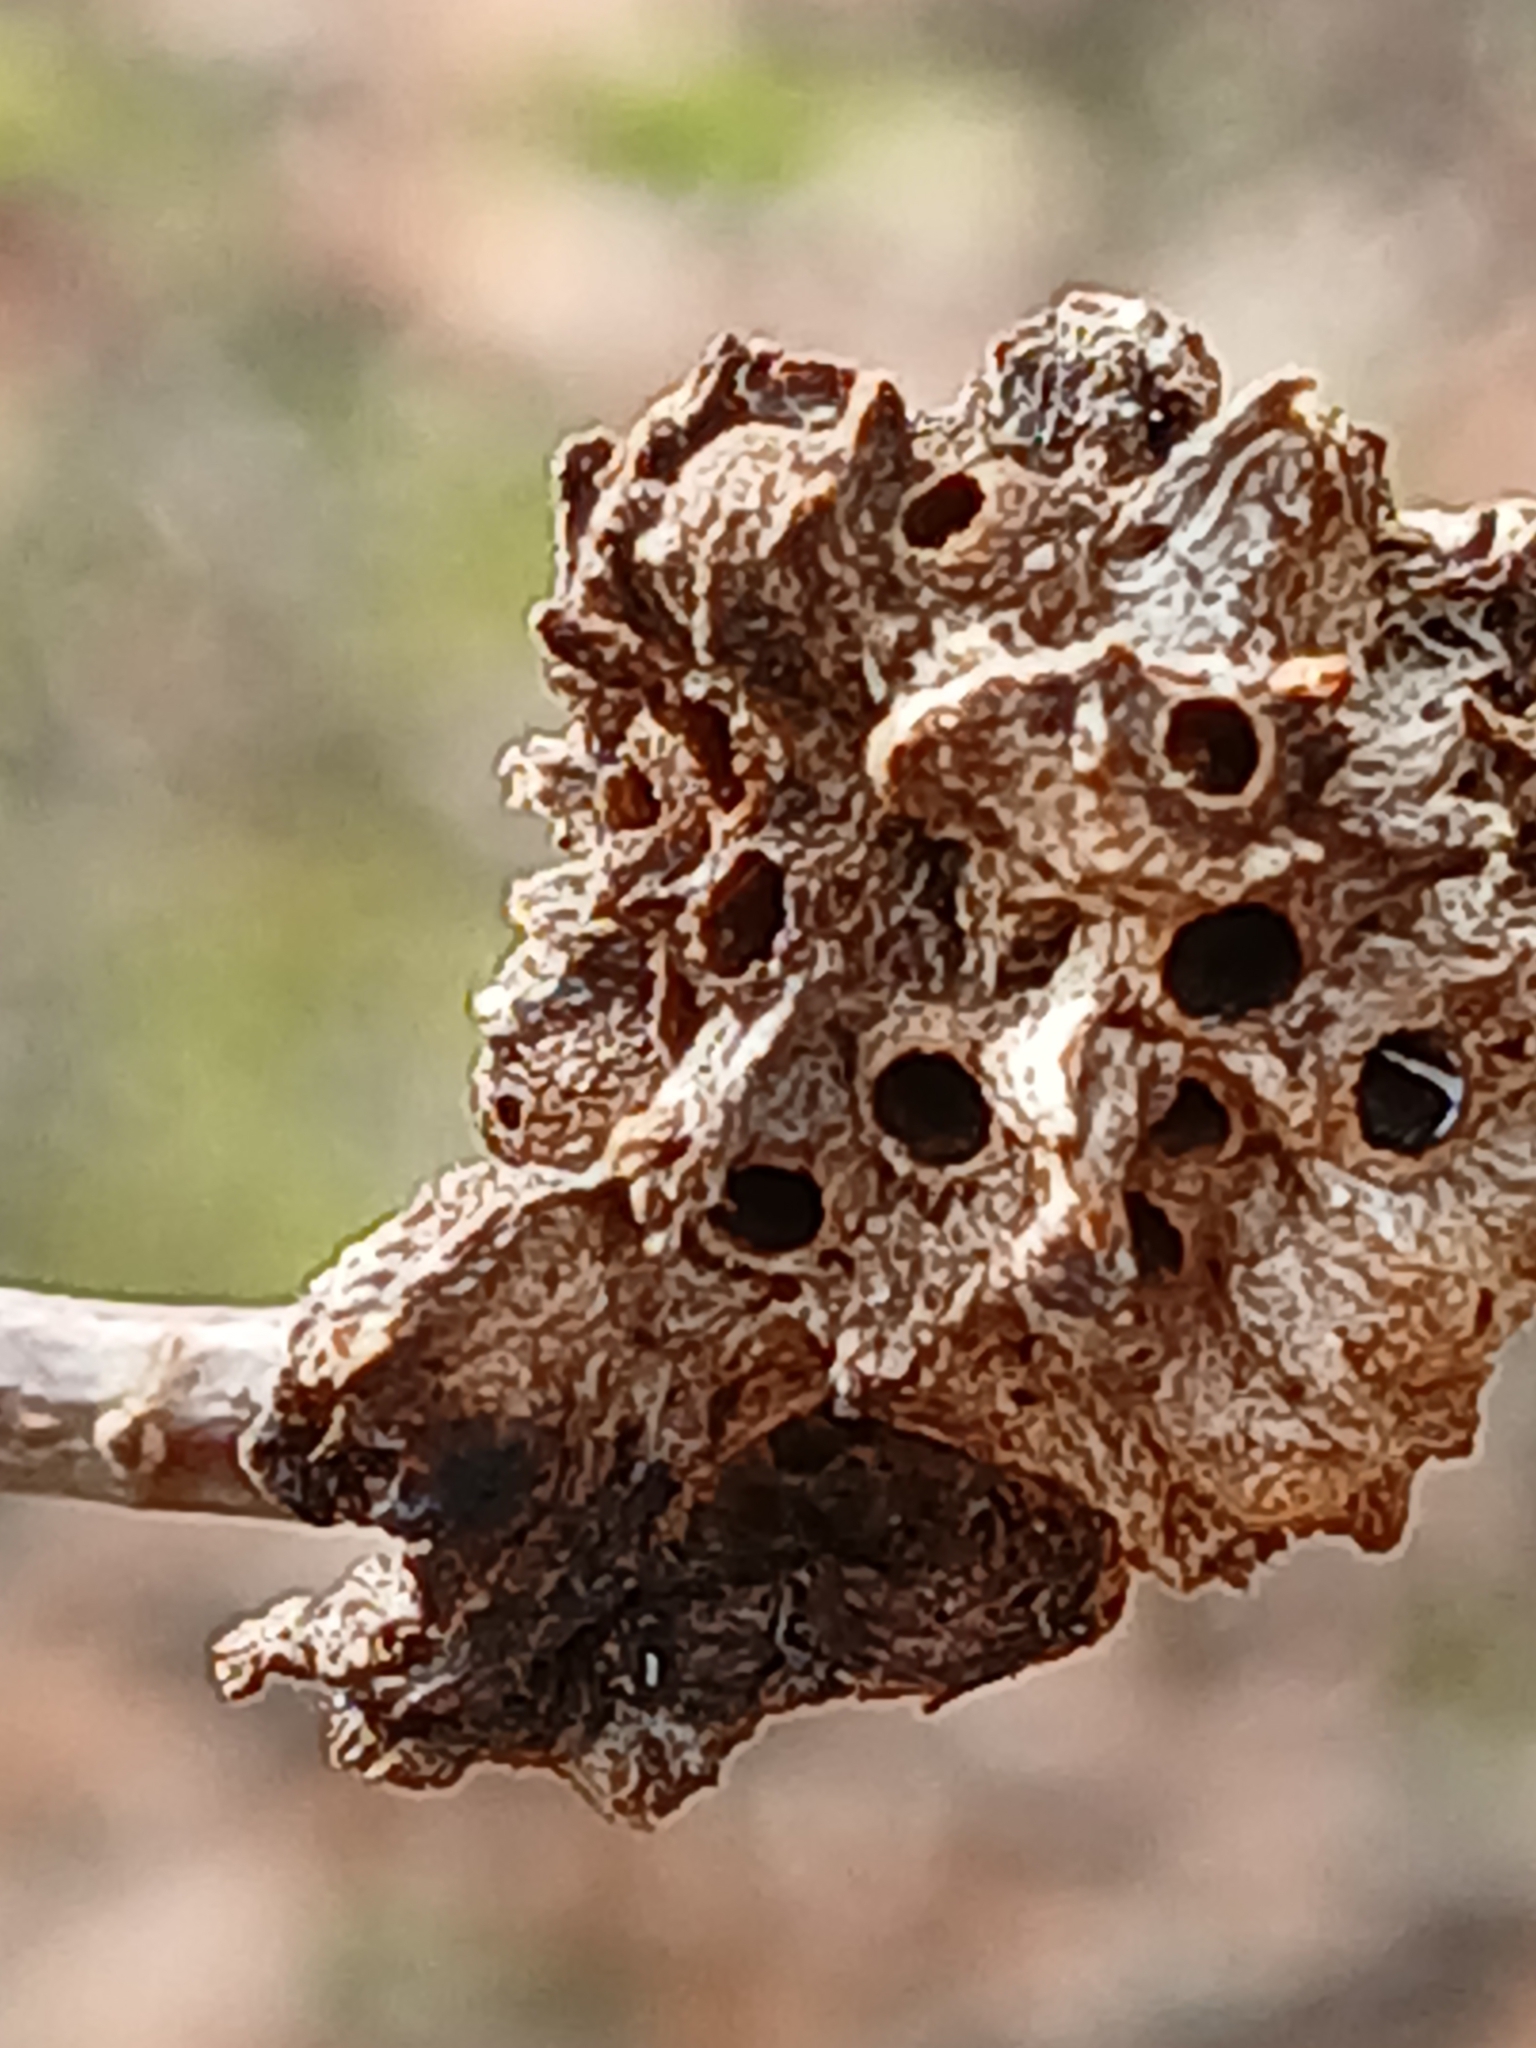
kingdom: Animalia
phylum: Arthropoda
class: Insecta
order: Hymenoptera
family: Cynipidae
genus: Biorhiza
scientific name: Biorhiza pallida
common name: Oak apple
